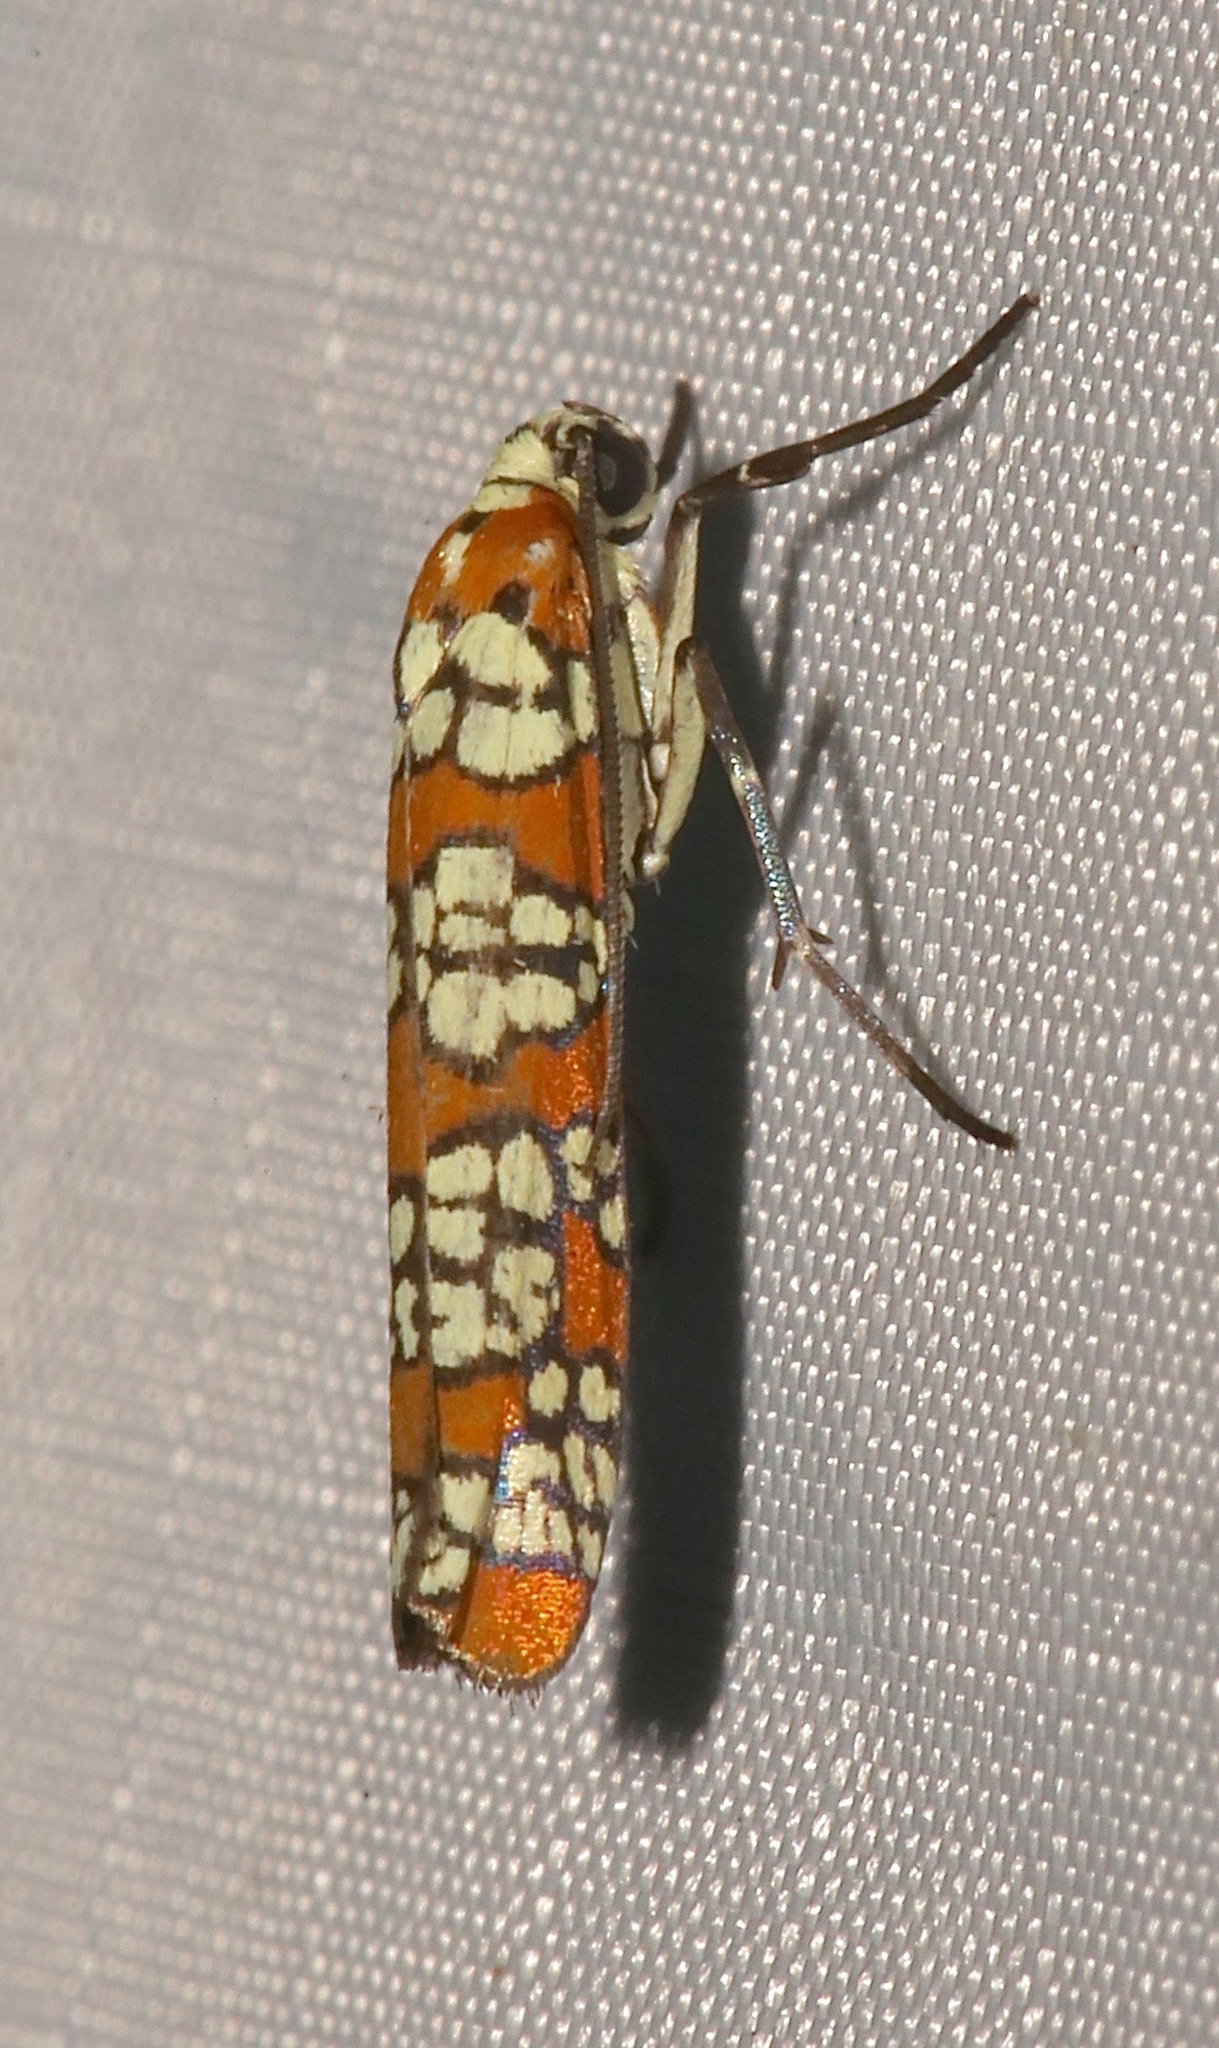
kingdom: Animalia
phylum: Arthropoda
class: Insecta
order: Lepidoptera
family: Attevidae
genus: Atteva
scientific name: Atteva punctella
